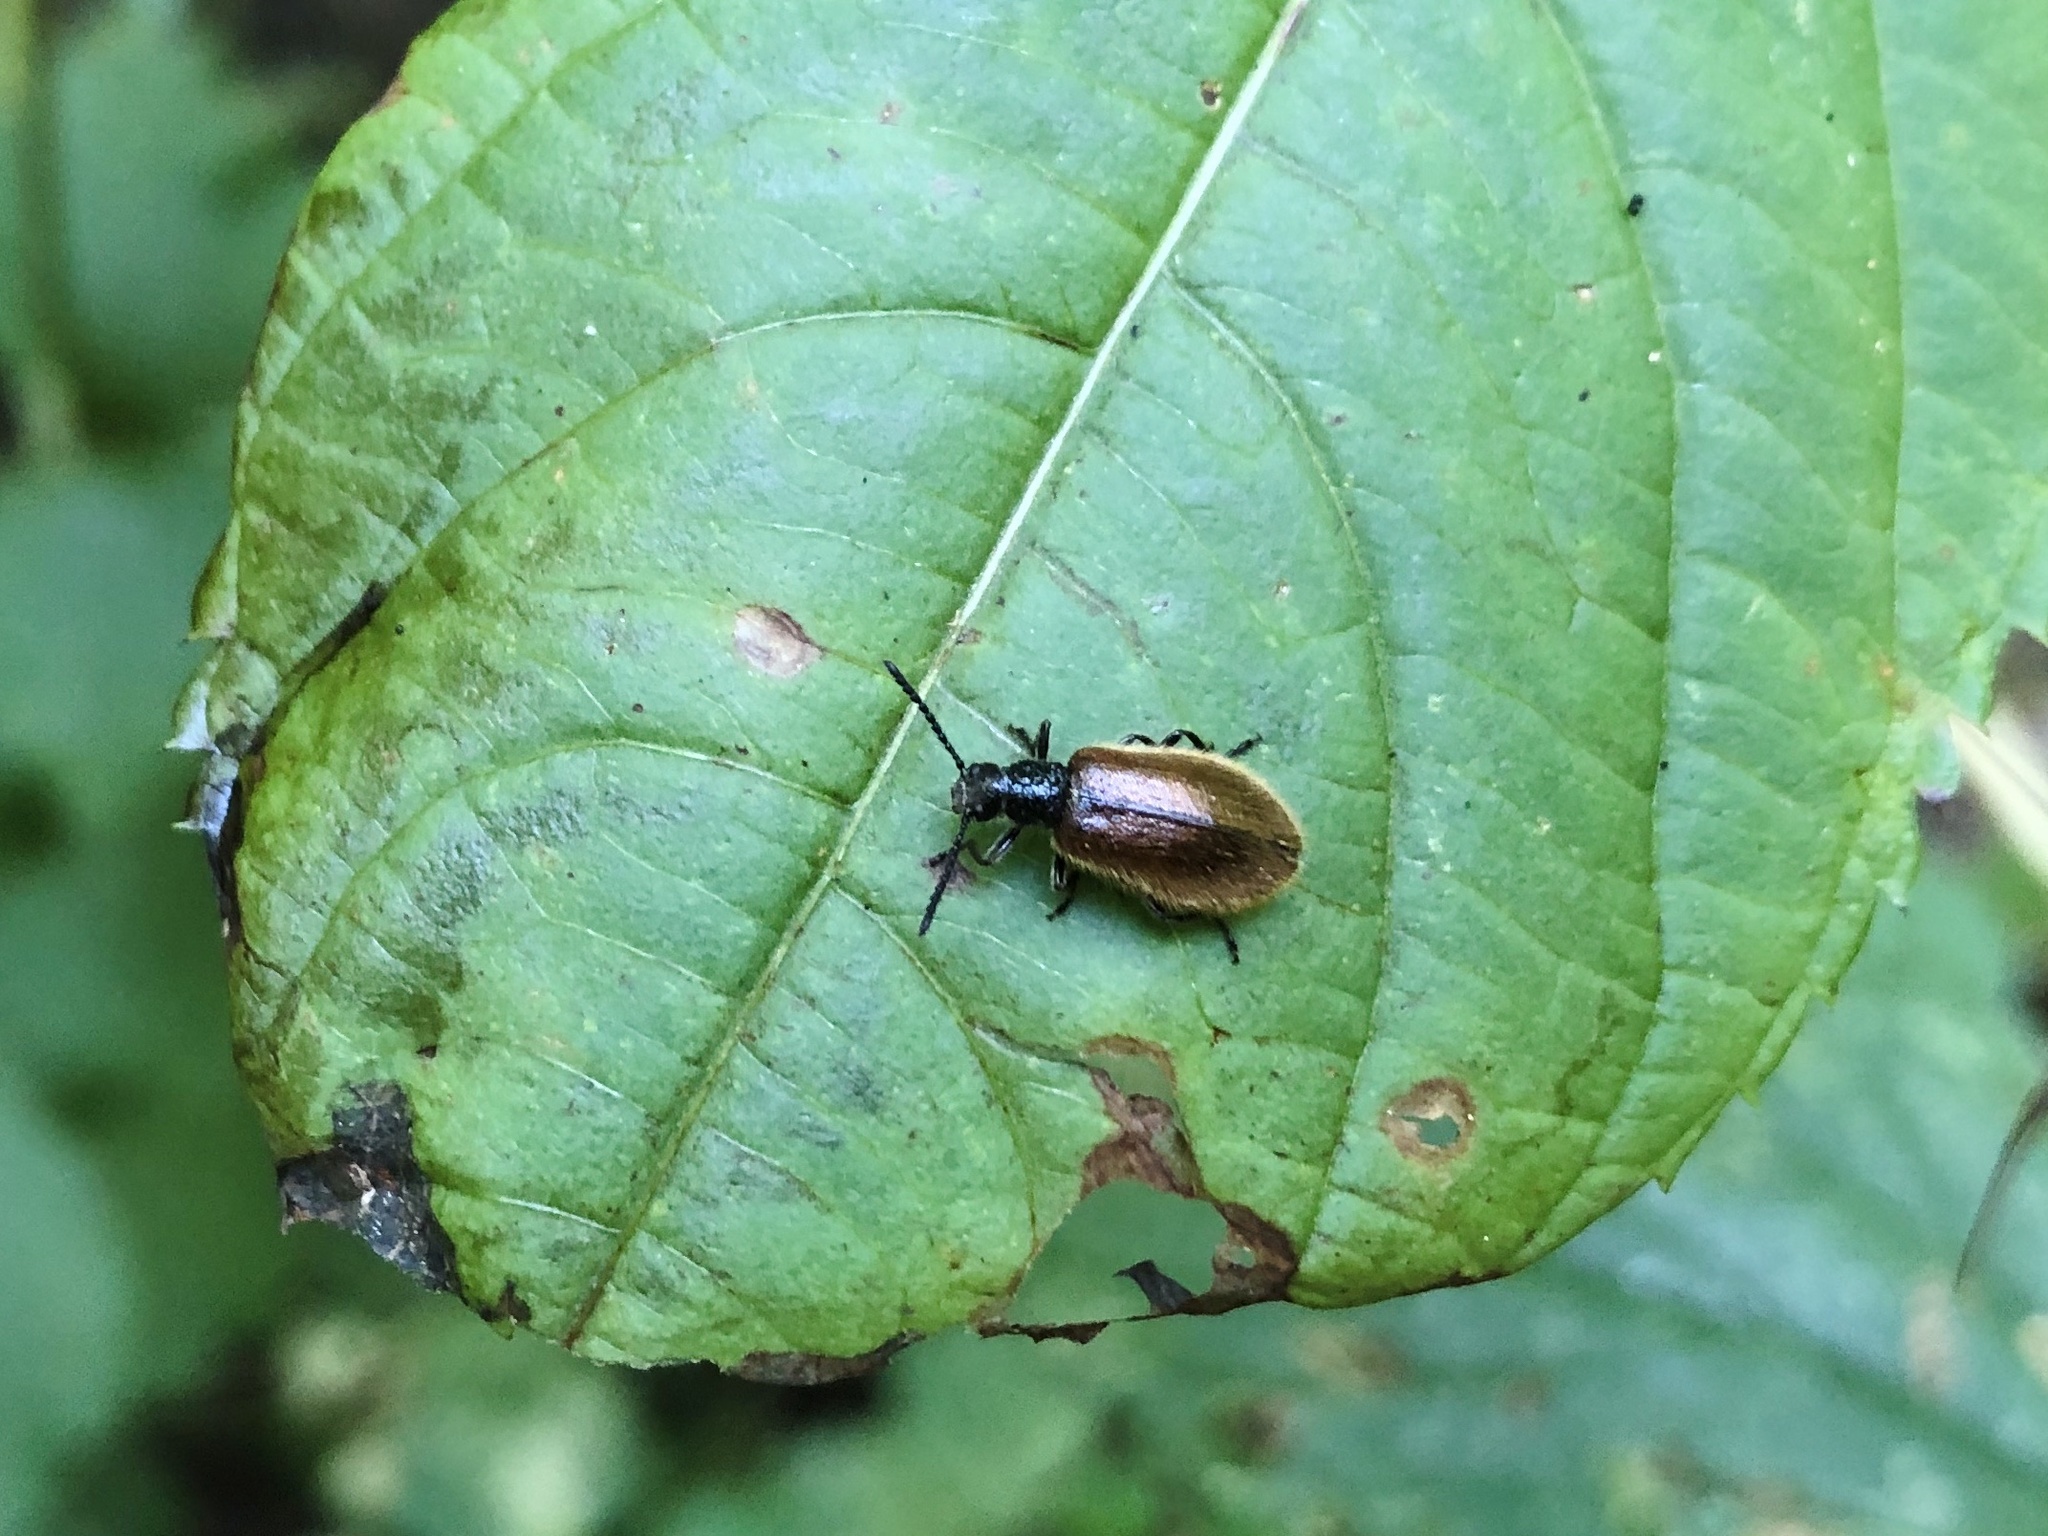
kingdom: Animalia
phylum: Arthropoda
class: Insecta
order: Coleoptera
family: Tenebrionidae
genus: Lagria
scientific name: Lagria hirta
